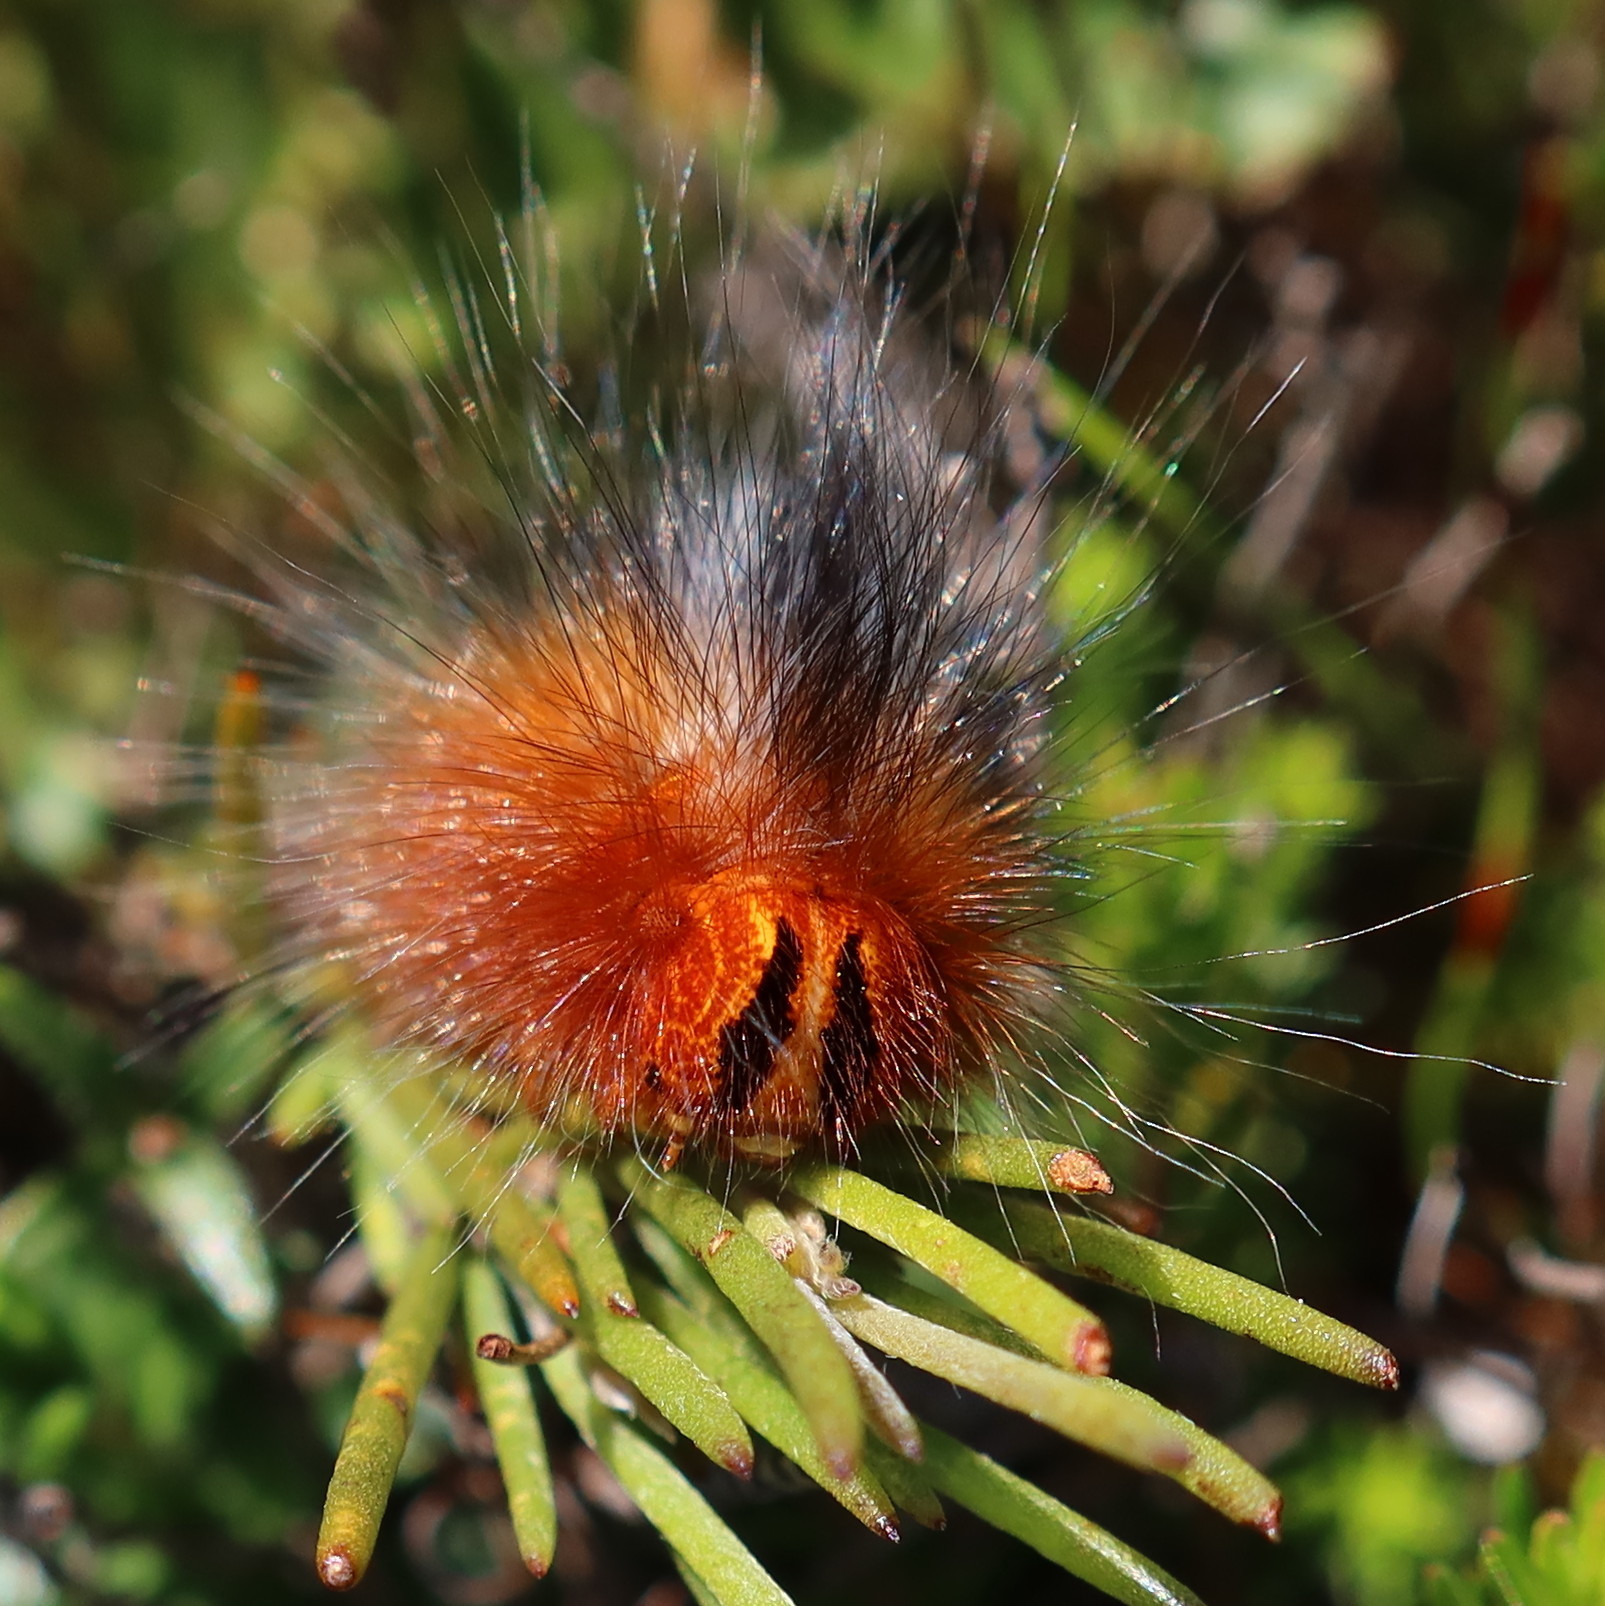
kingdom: Animalia
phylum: Arthropoda
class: Insecta
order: Lepidoptera
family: Lasiocampidae
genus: Mesocelis
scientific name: Mesocelis monticola
